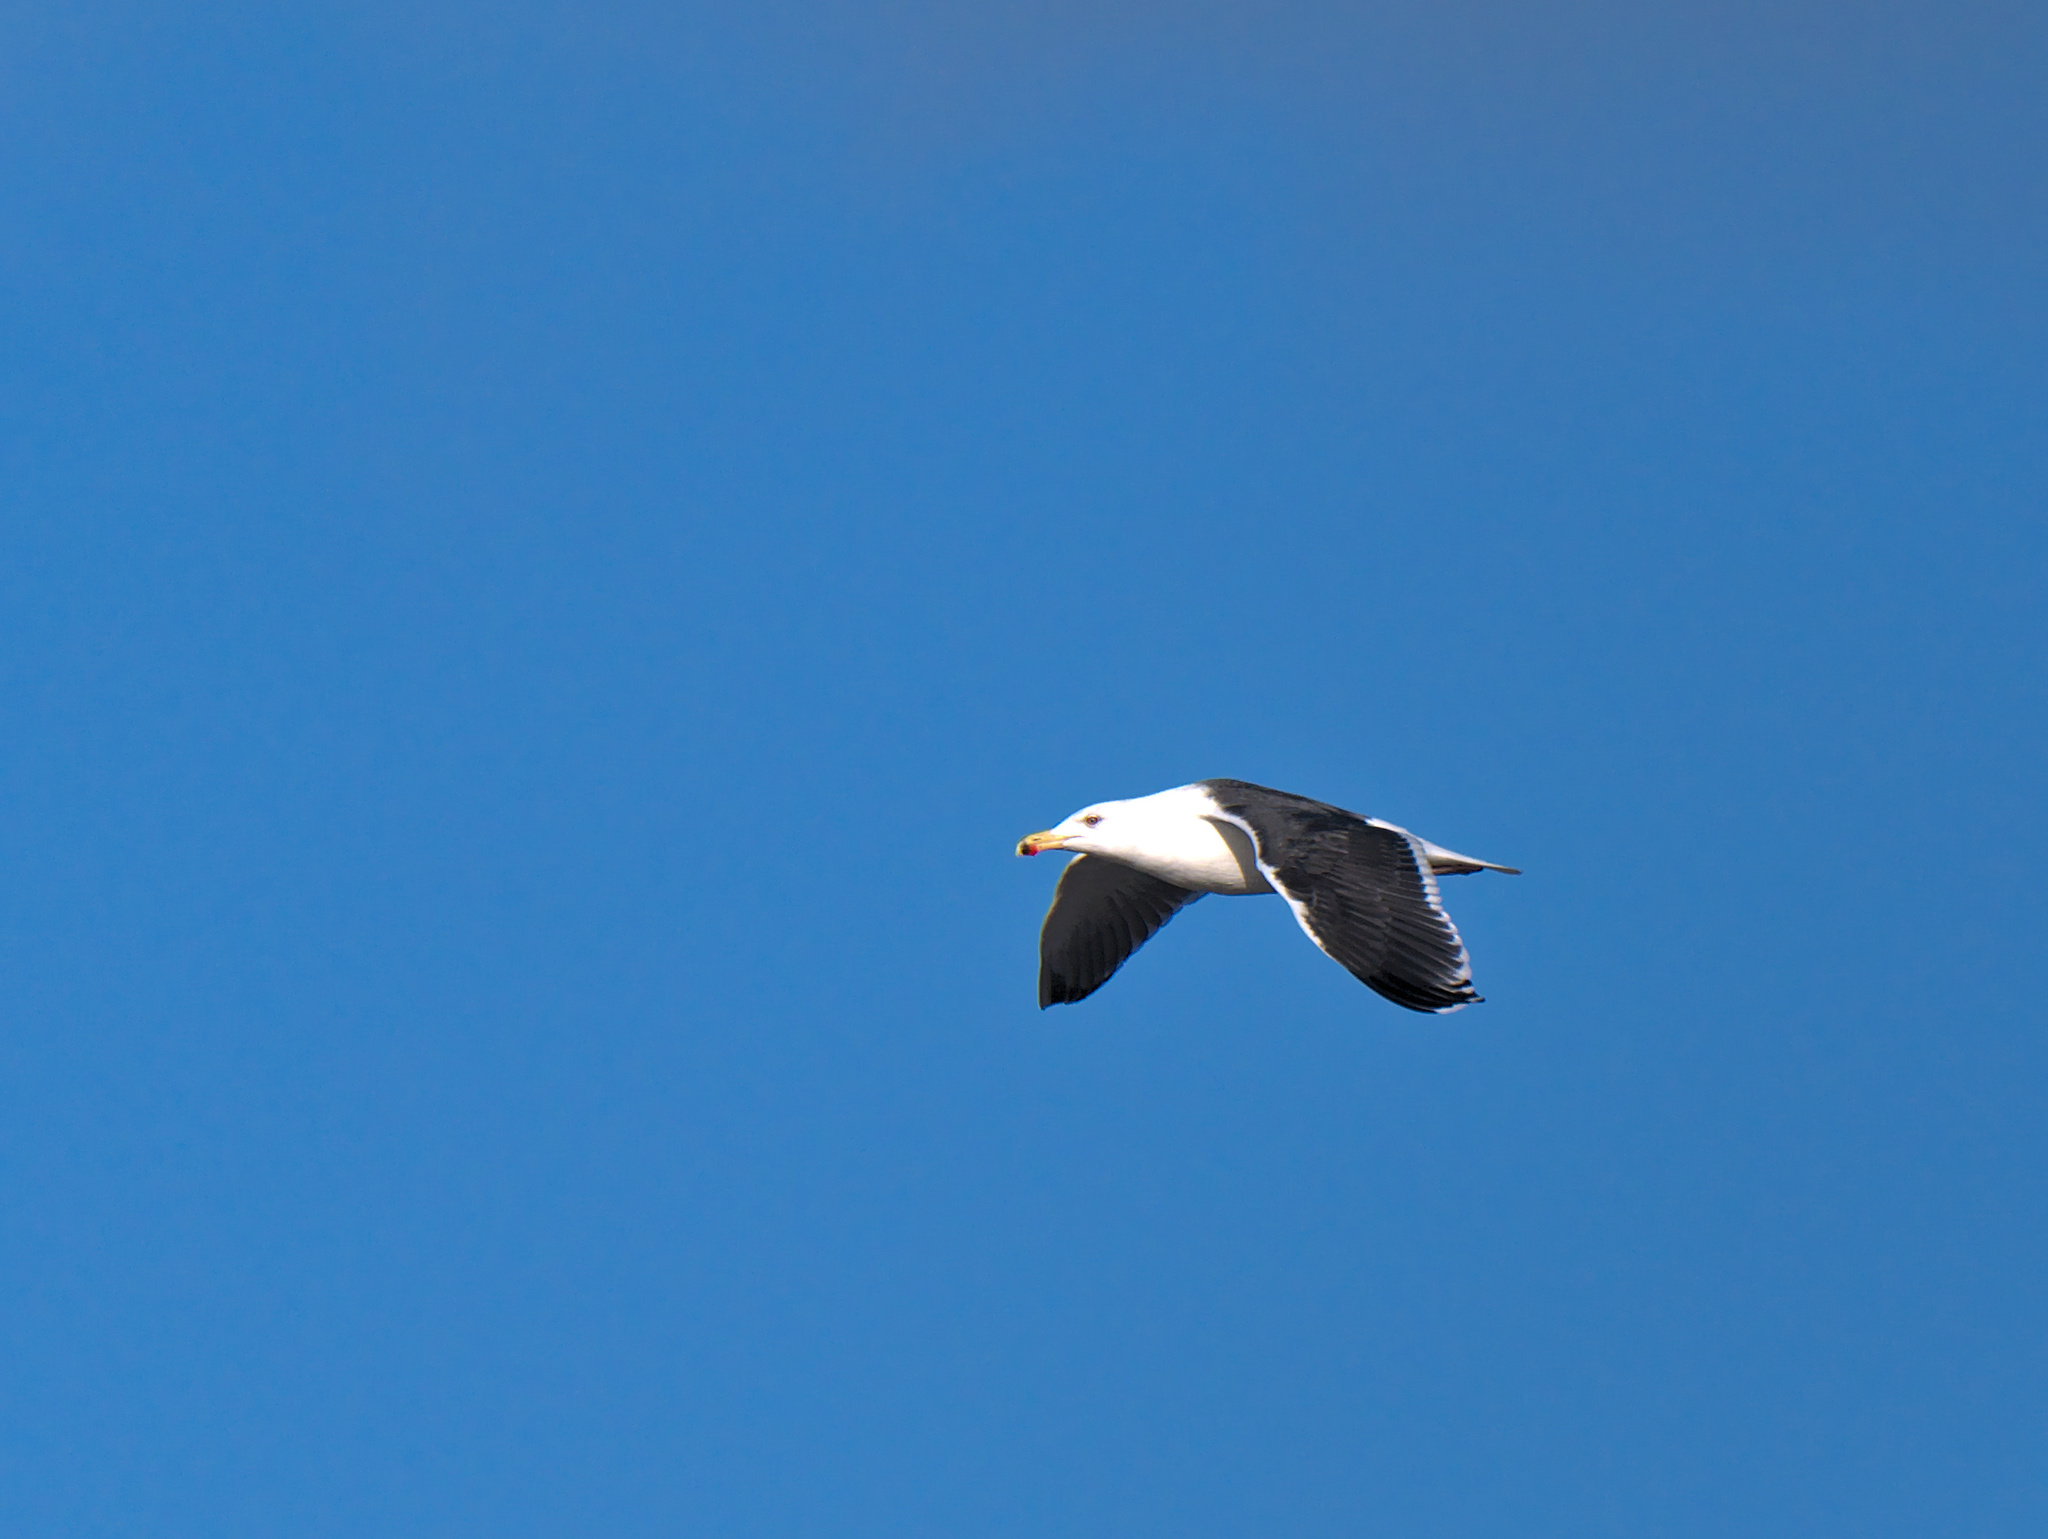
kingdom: Animalia
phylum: Chordata
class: Aves
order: Charadriiformes
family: Laridae
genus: Larus
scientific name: Larus marinus
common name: Great black-backed gull
